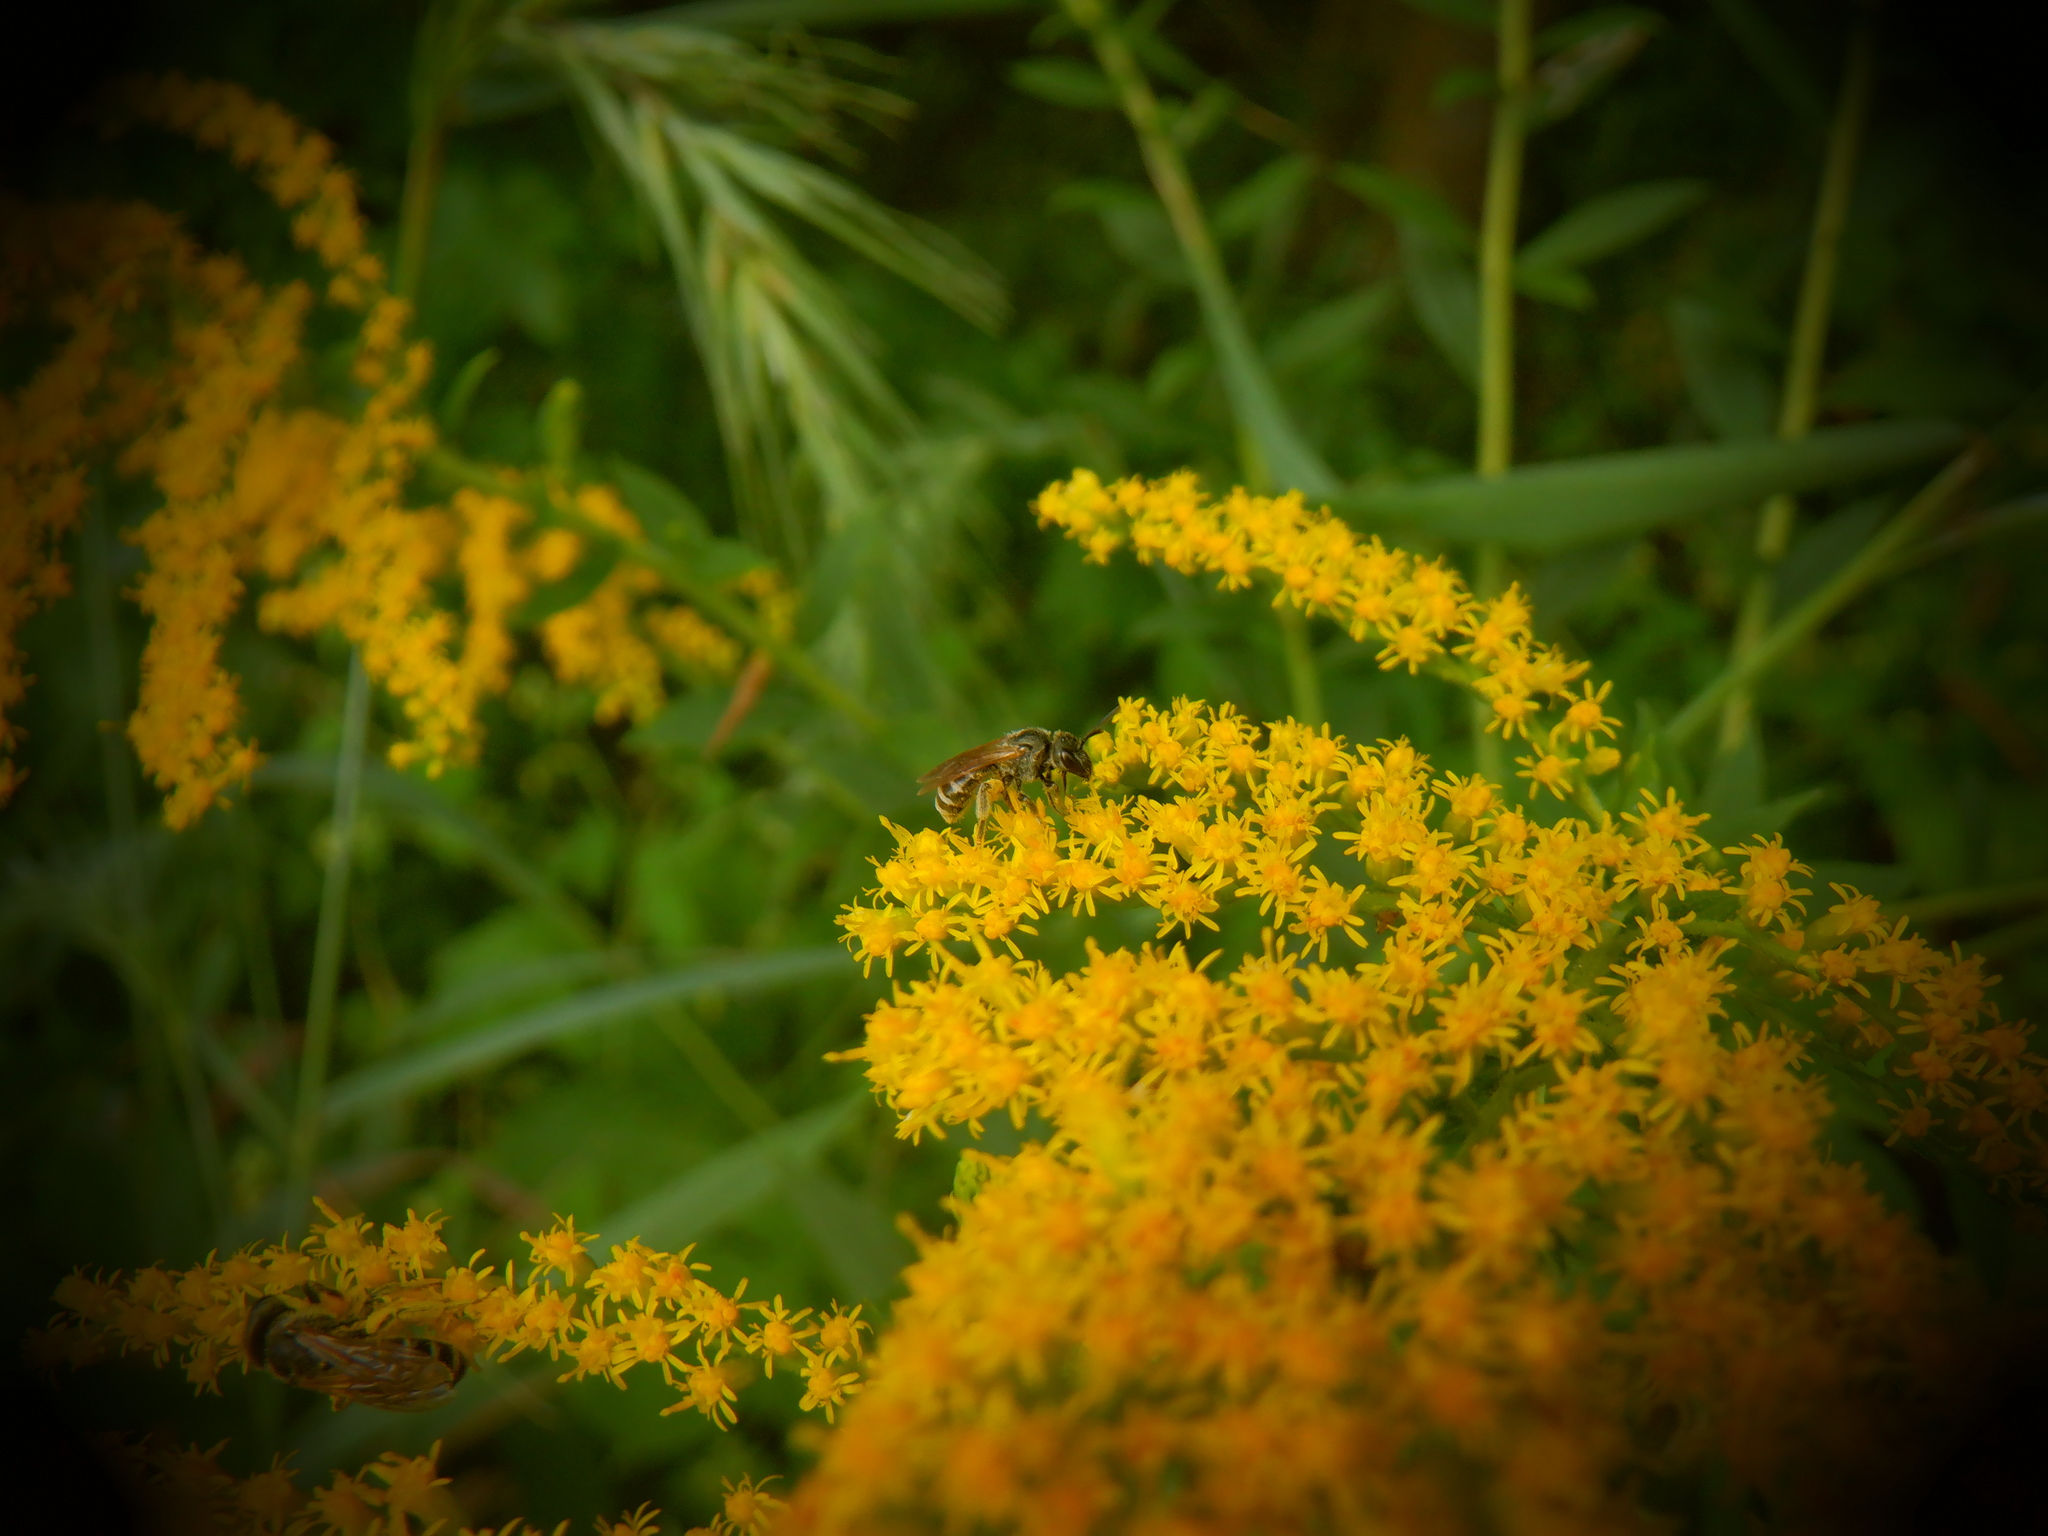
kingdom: Animalia
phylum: Arthropoda
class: Insecta
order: Hymenoptera
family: Halictidae
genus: Halictus
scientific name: Halictus confusus
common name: Southern bronze furrow bee
